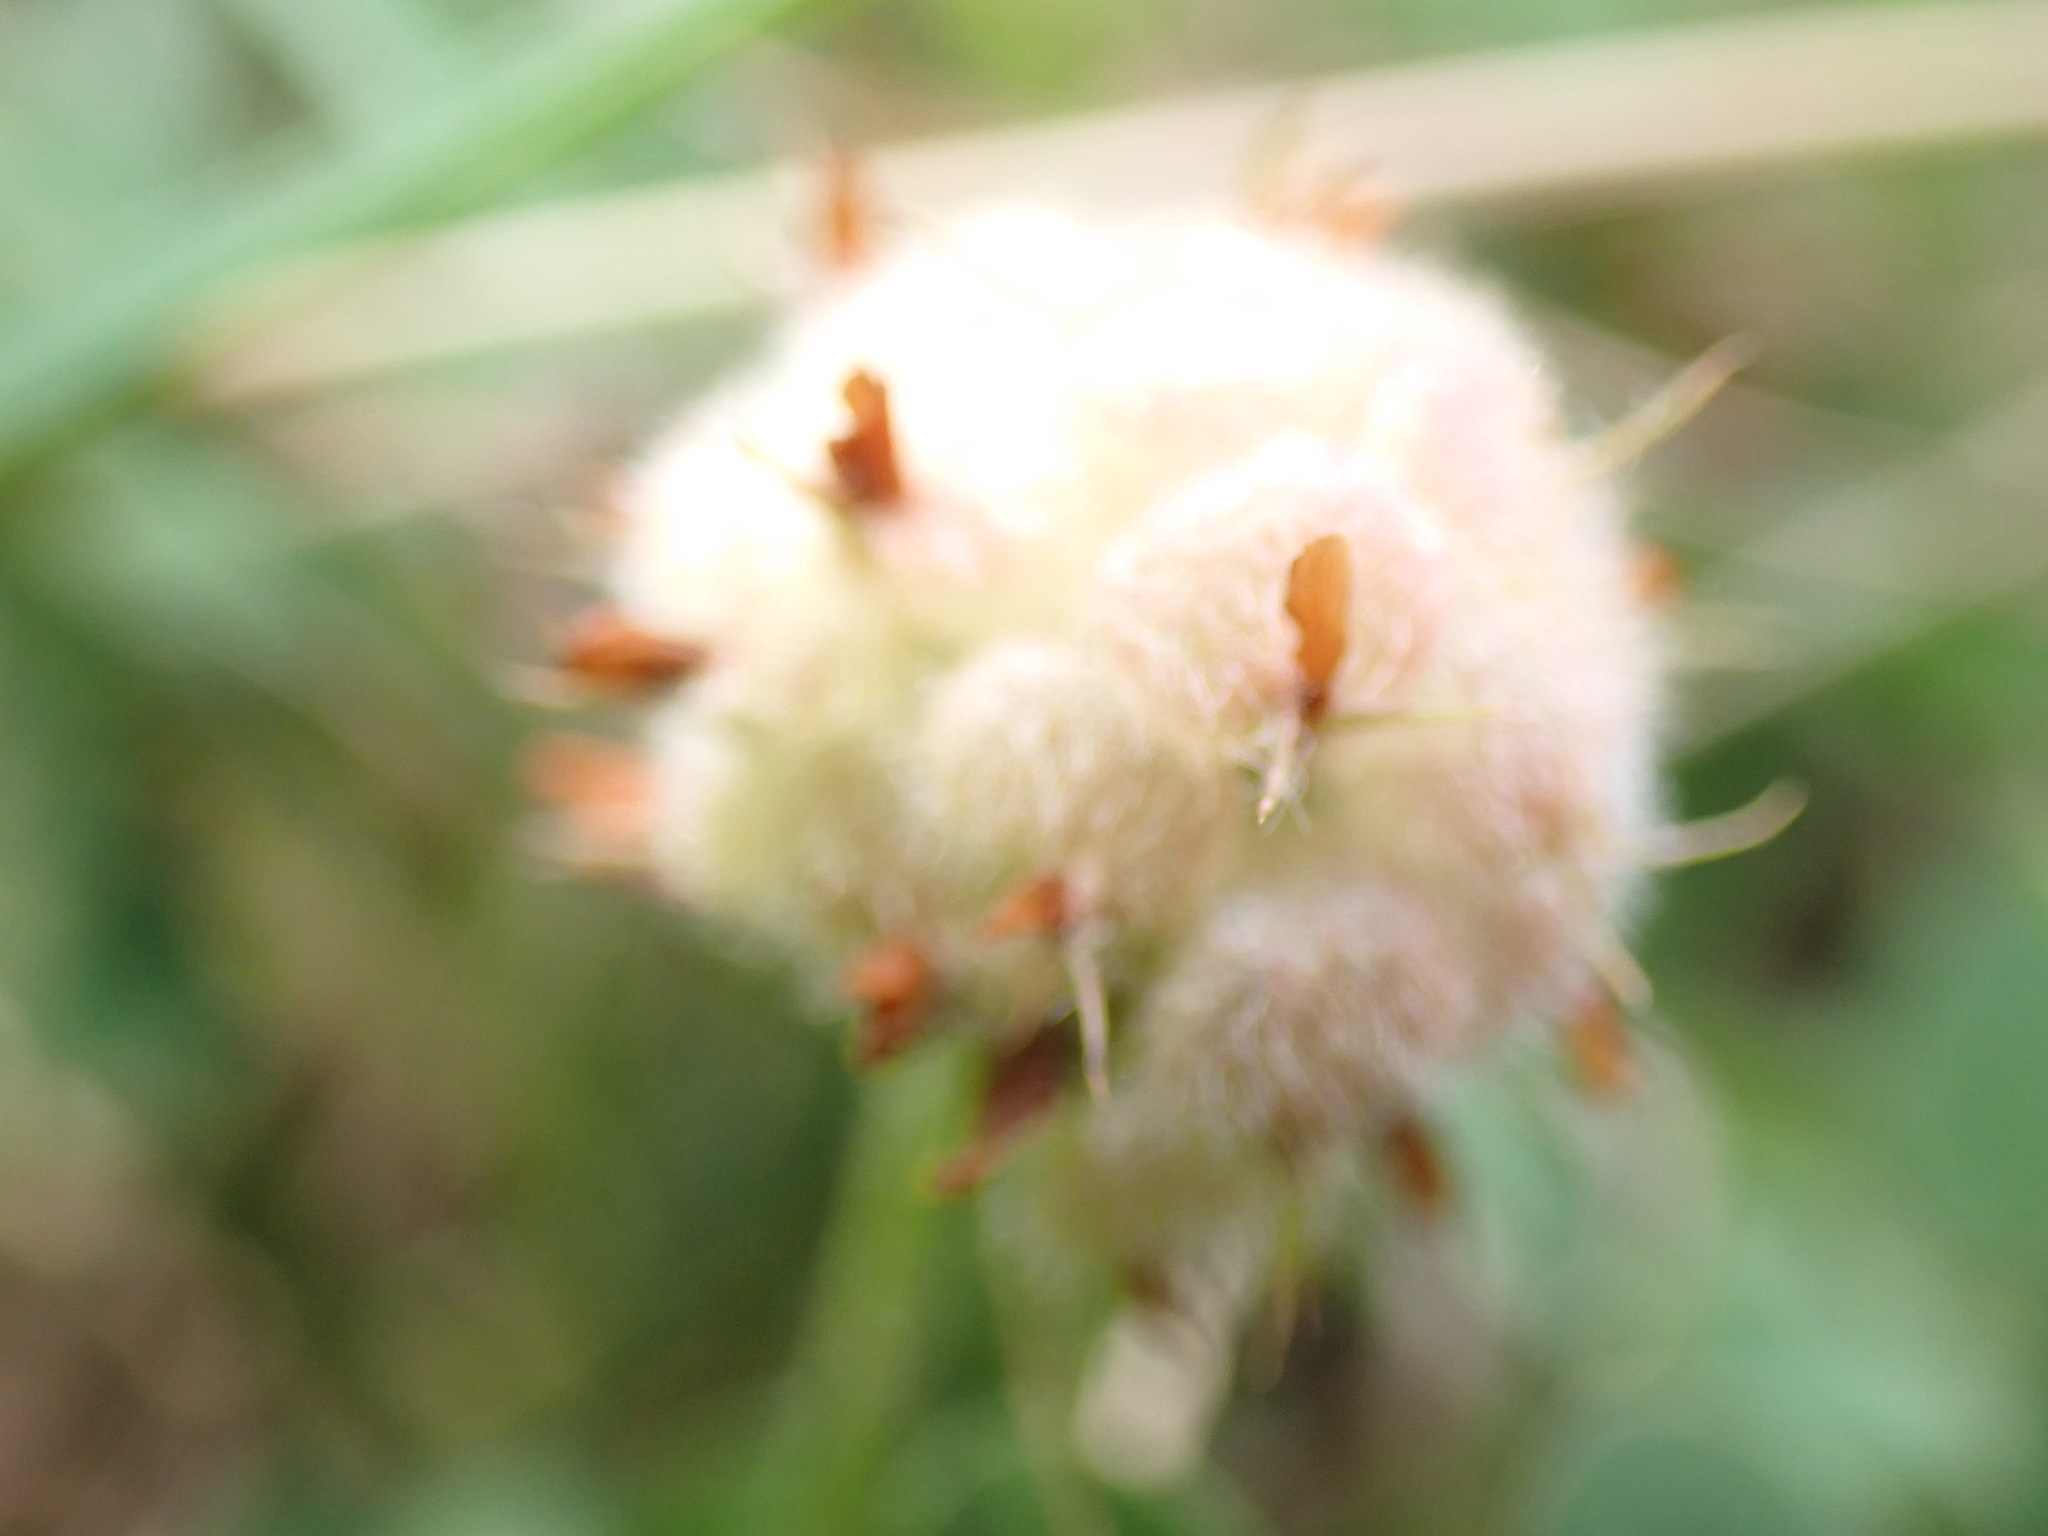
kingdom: Plantae
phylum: Tracheophyta
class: Magnoliopsida
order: Fabales
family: Fabaceae
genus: Trifolium
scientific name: Trifolium fragiferum
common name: Strawberry clover
